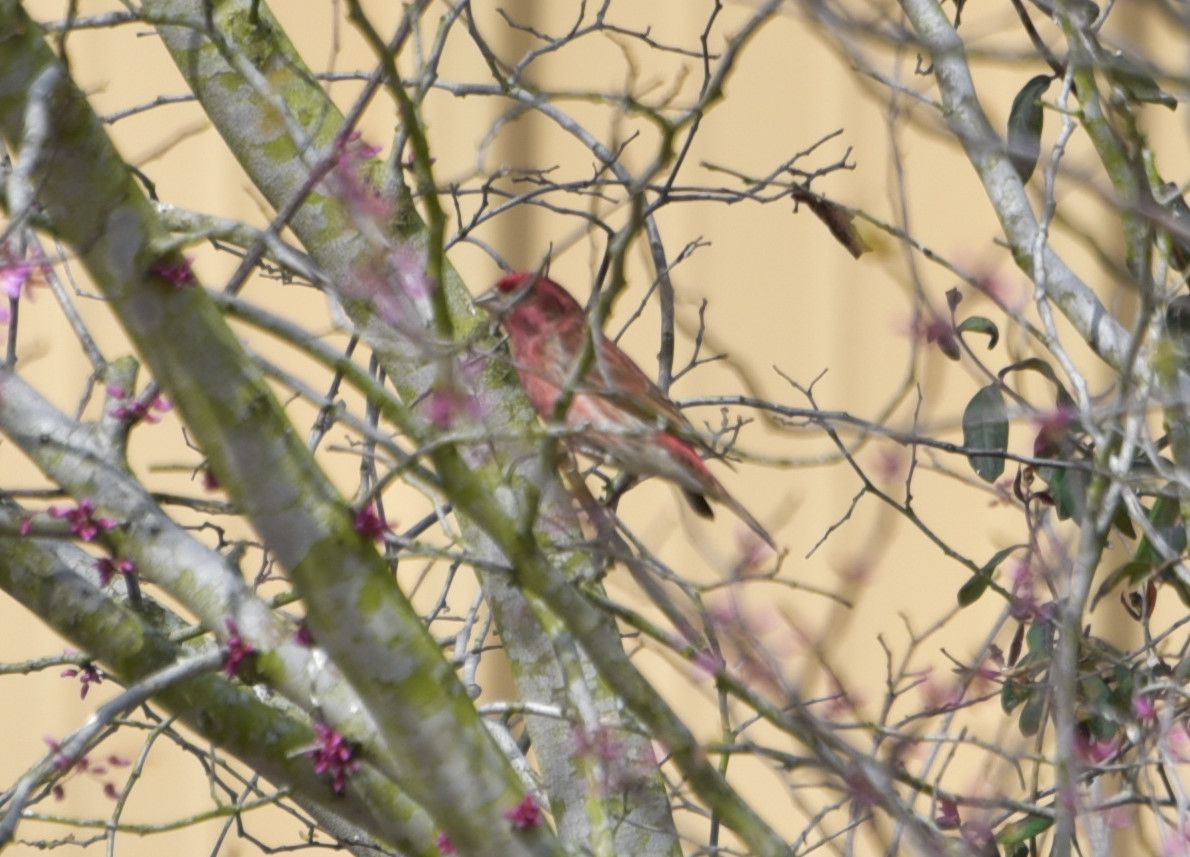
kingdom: Animalia
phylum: Chordata
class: Aves
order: Passeriformes
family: Fringillidae
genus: Haemorhous
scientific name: Haemorhous purpureus
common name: Purple finch
